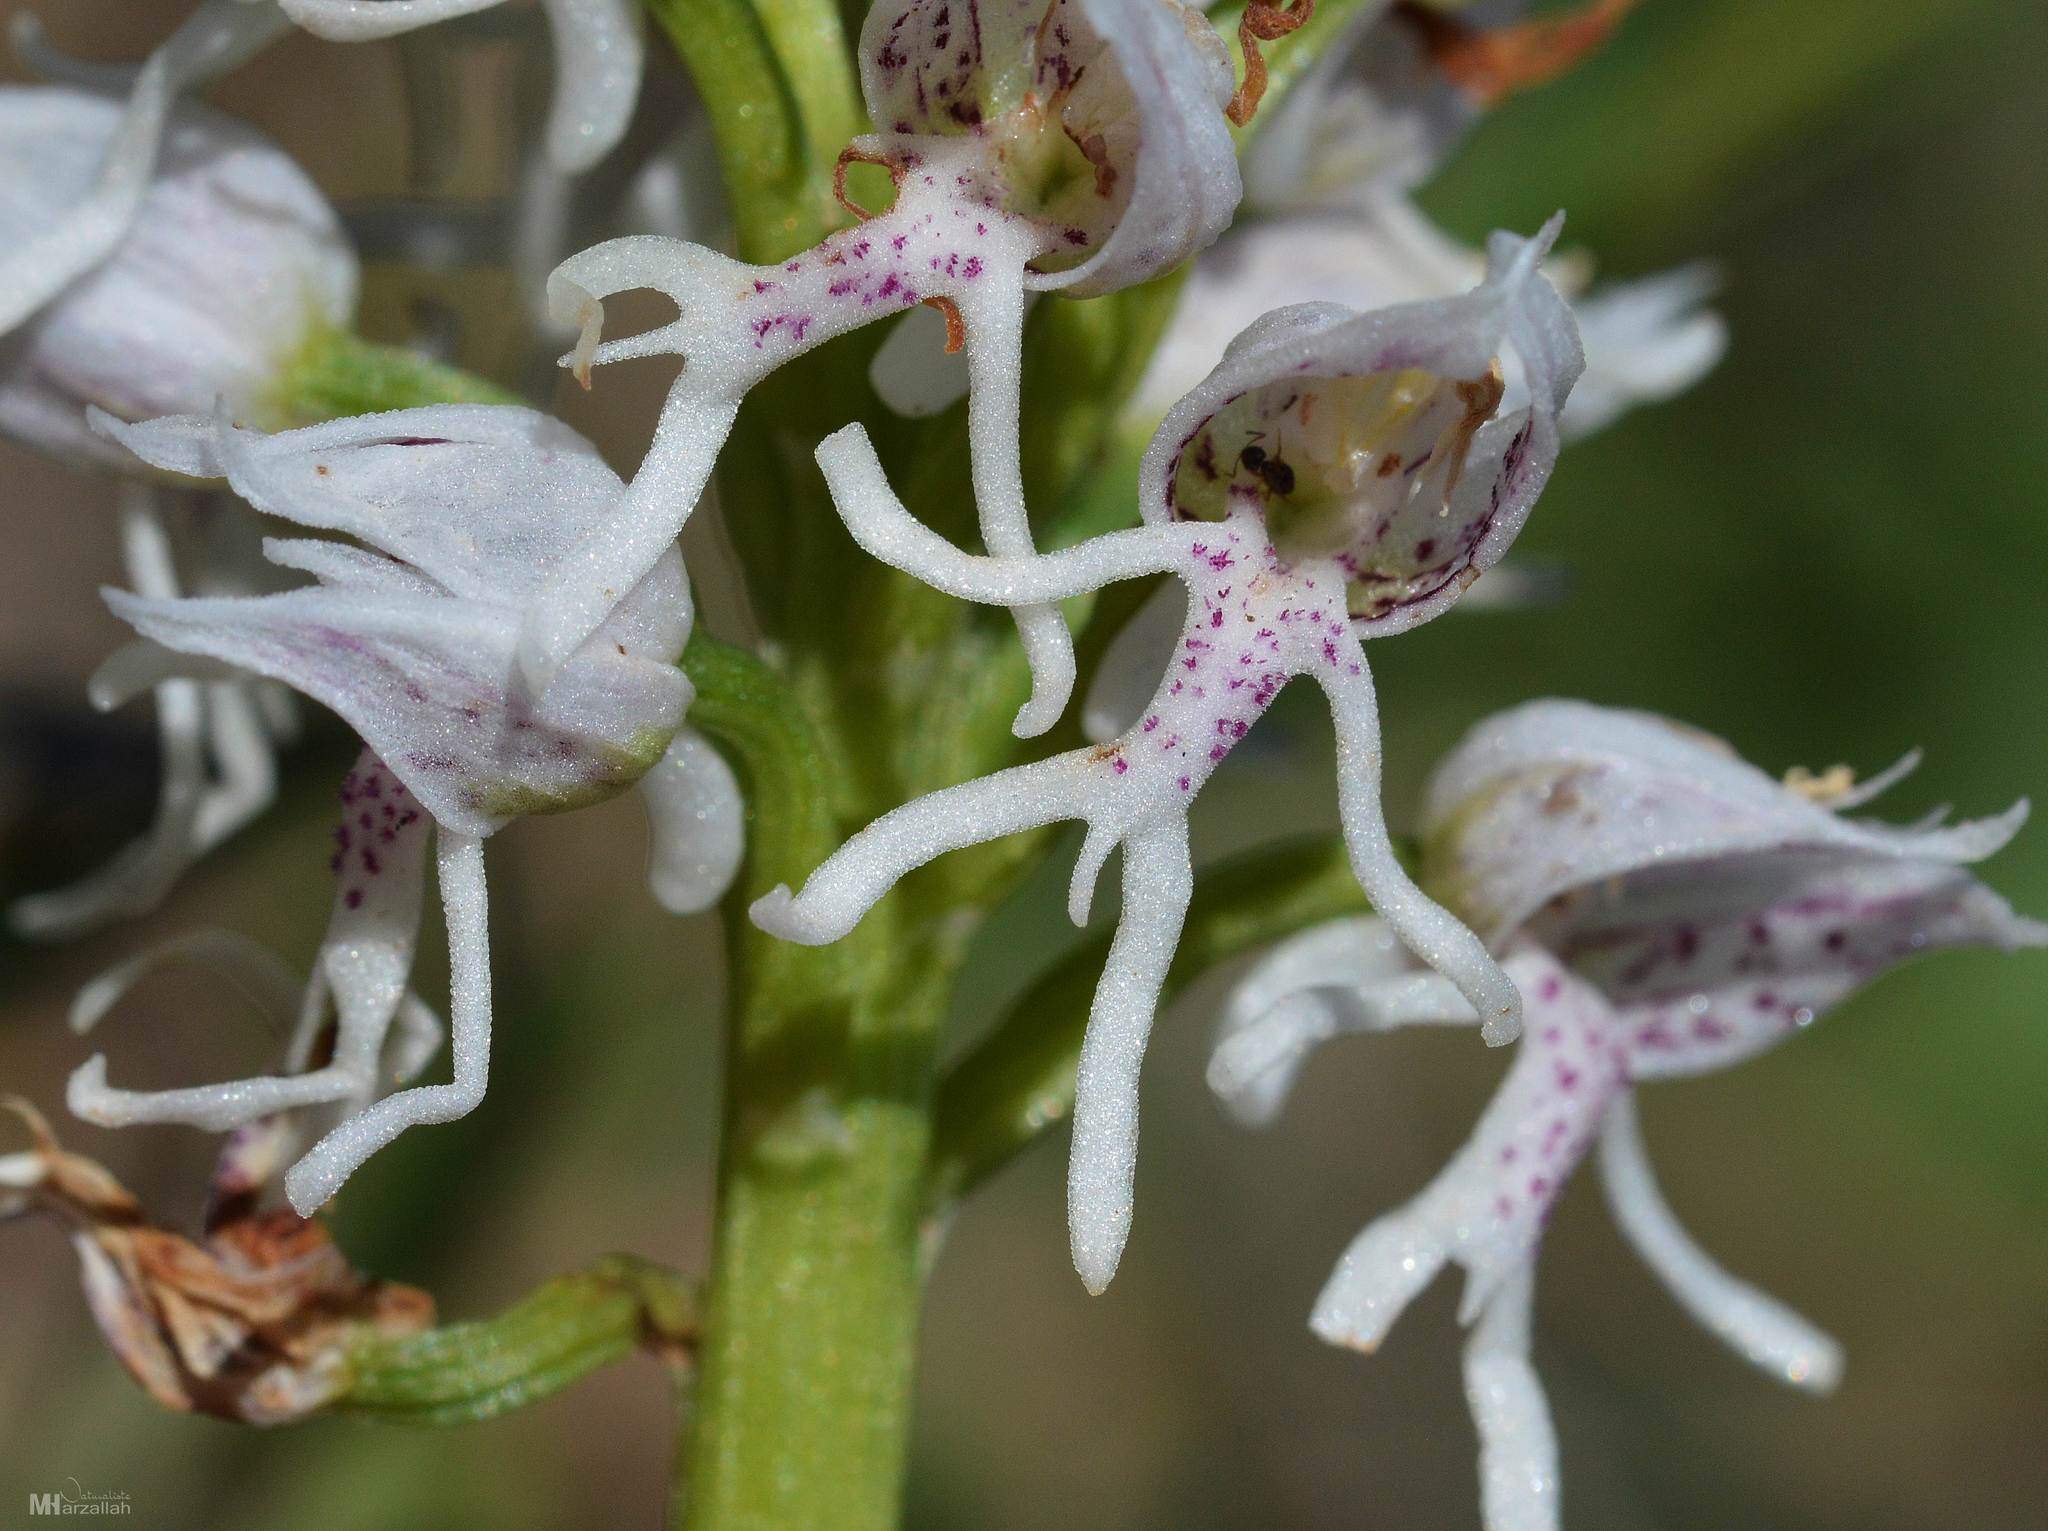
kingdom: Plantae
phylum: Tracheophyta
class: Liliopsida
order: Asparagales
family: Orchidaceae
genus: Orchis
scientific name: Orchis simia
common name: Monkey orchid
